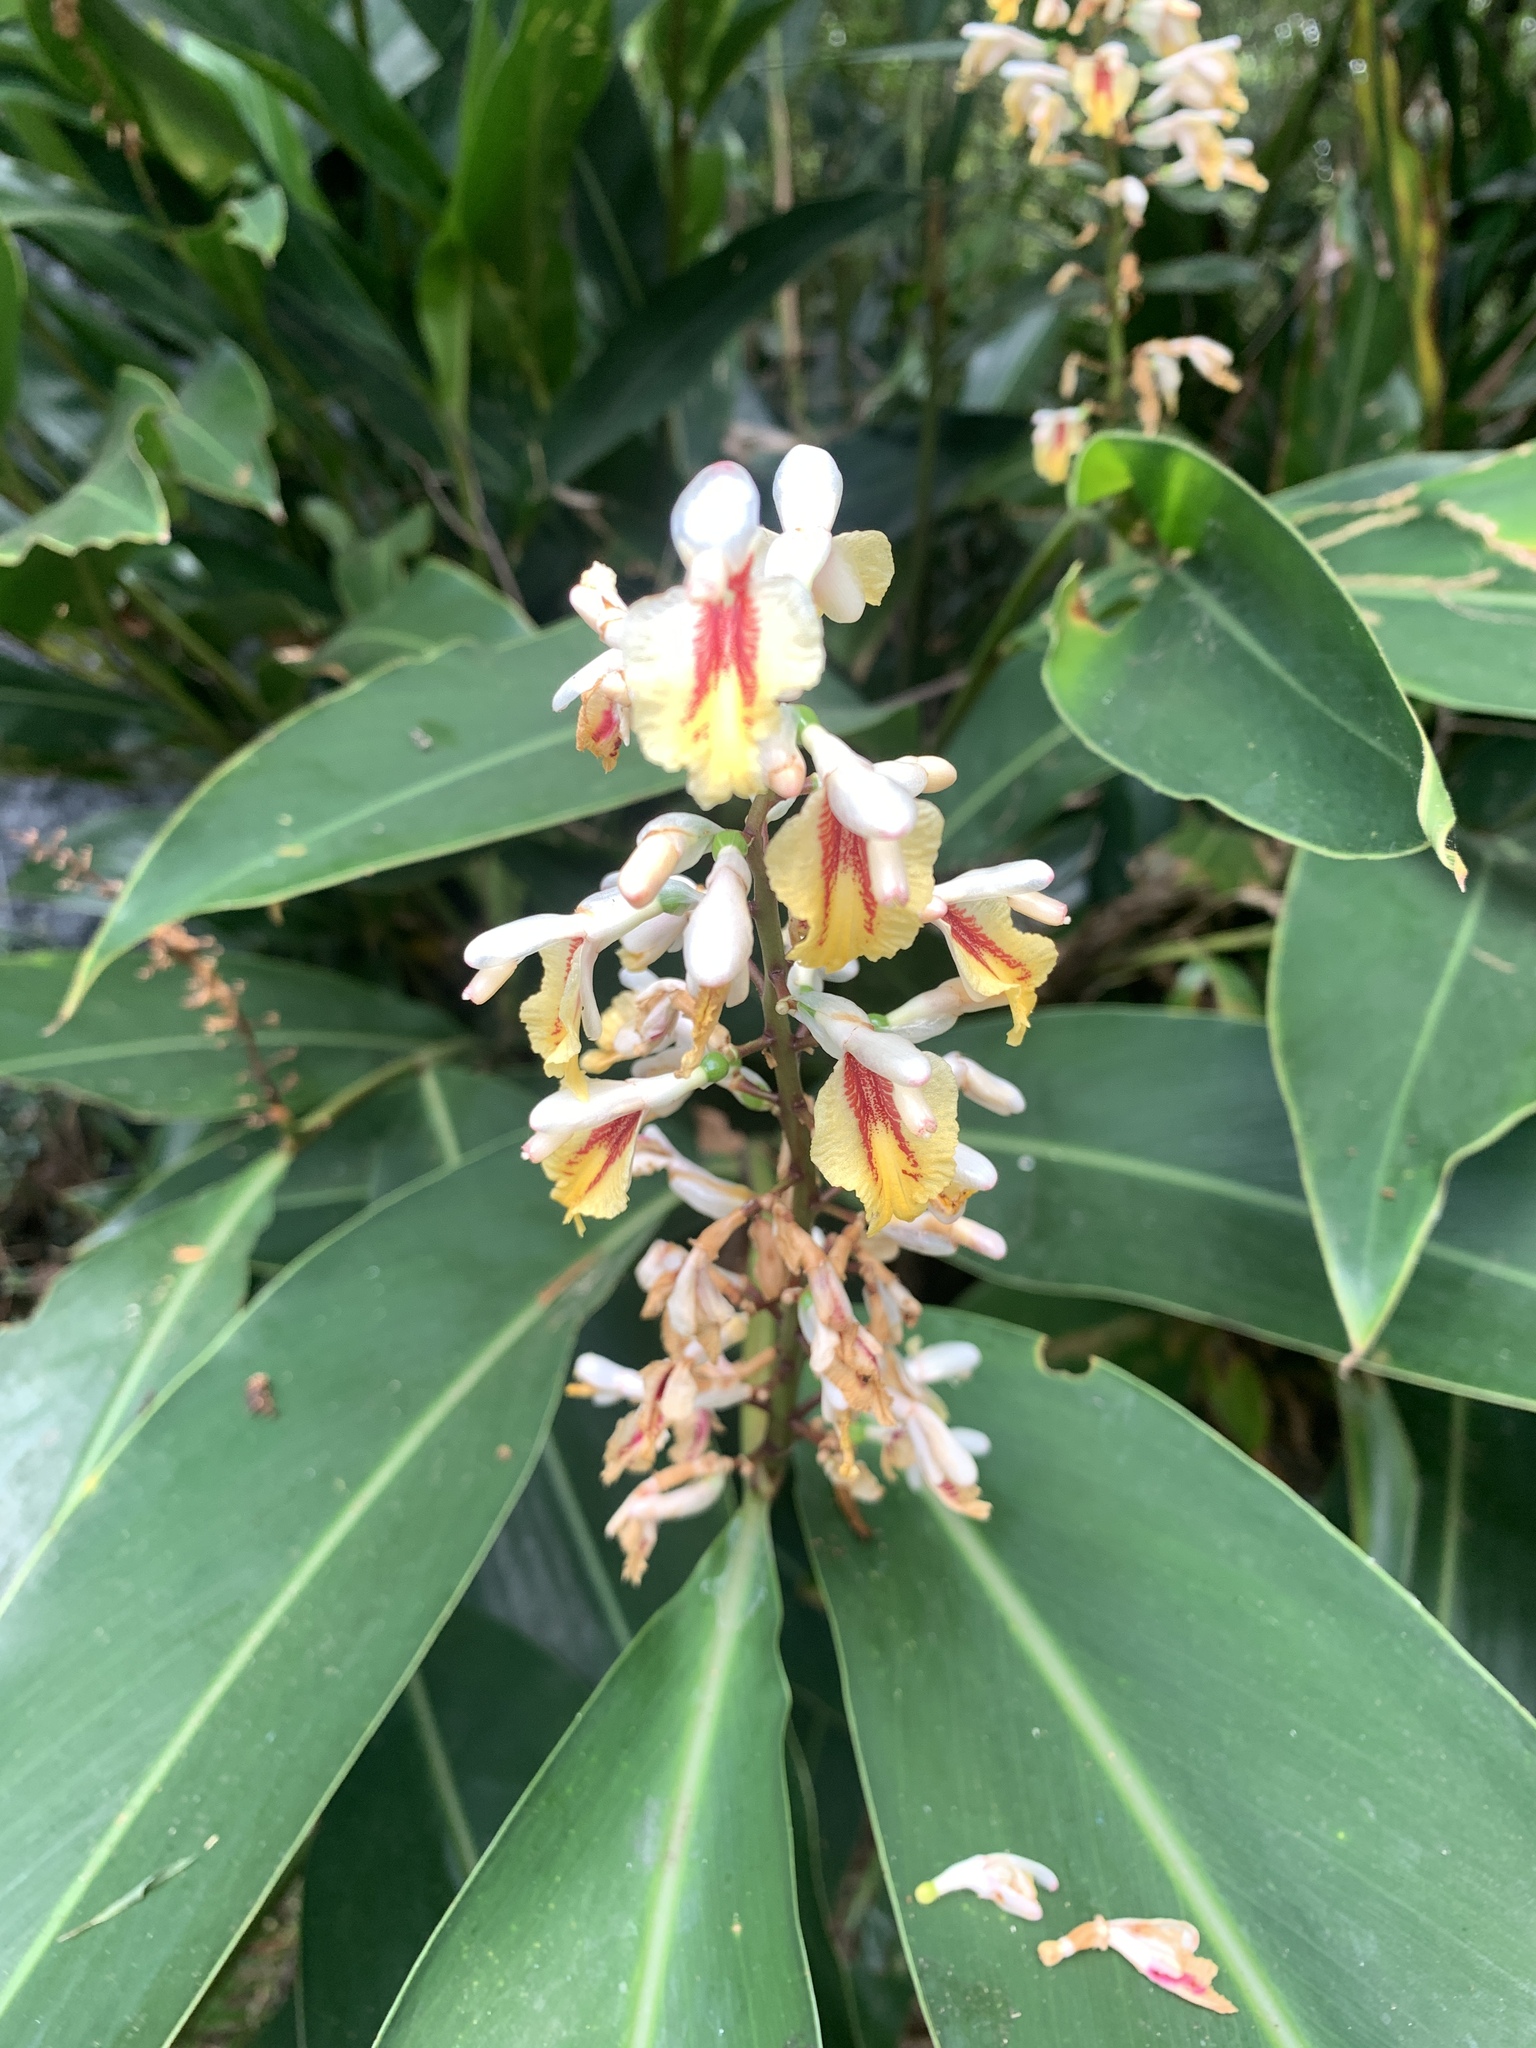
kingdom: Plantae
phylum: Tracheophyta
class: Liliopsida
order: Zingiberales
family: Zingiberaceae
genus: Alpinia
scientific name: Alpinia formosana
